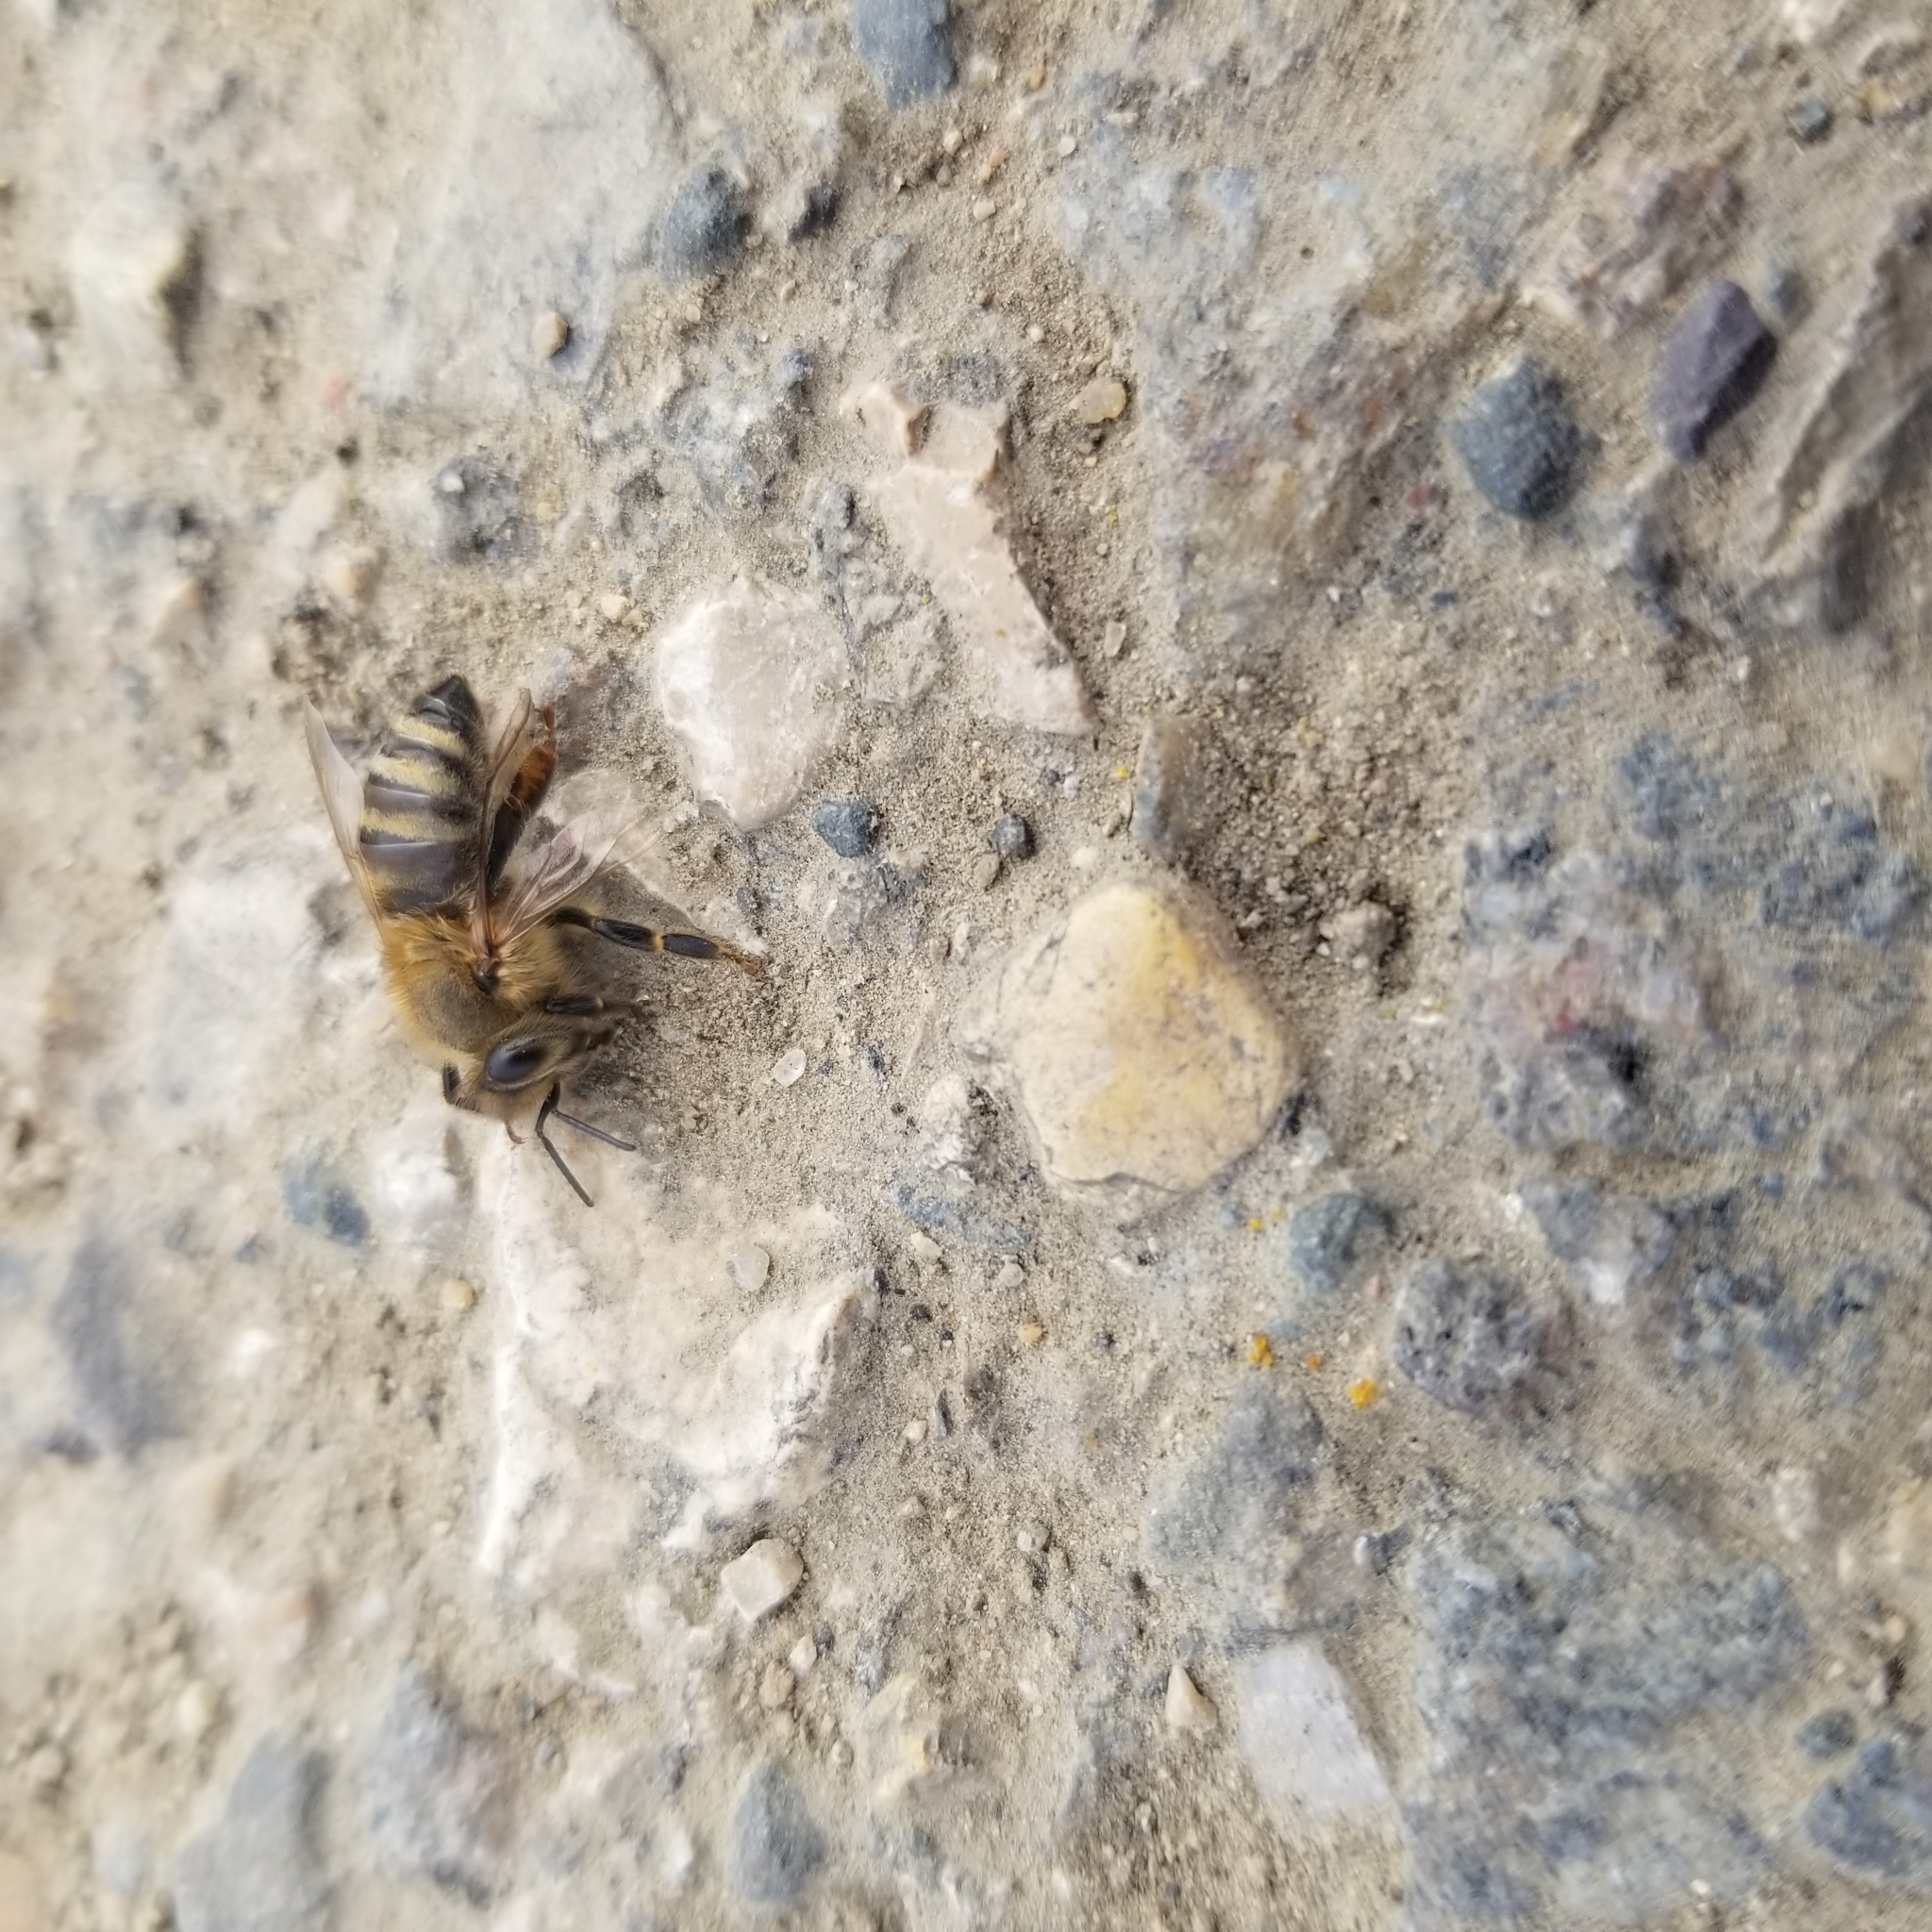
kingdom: Animalia
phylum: Arthropoda
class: Insecta
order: Hymenoptera
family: Apidae
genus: Apis
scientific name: Apis mellifera
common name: Honey bee
